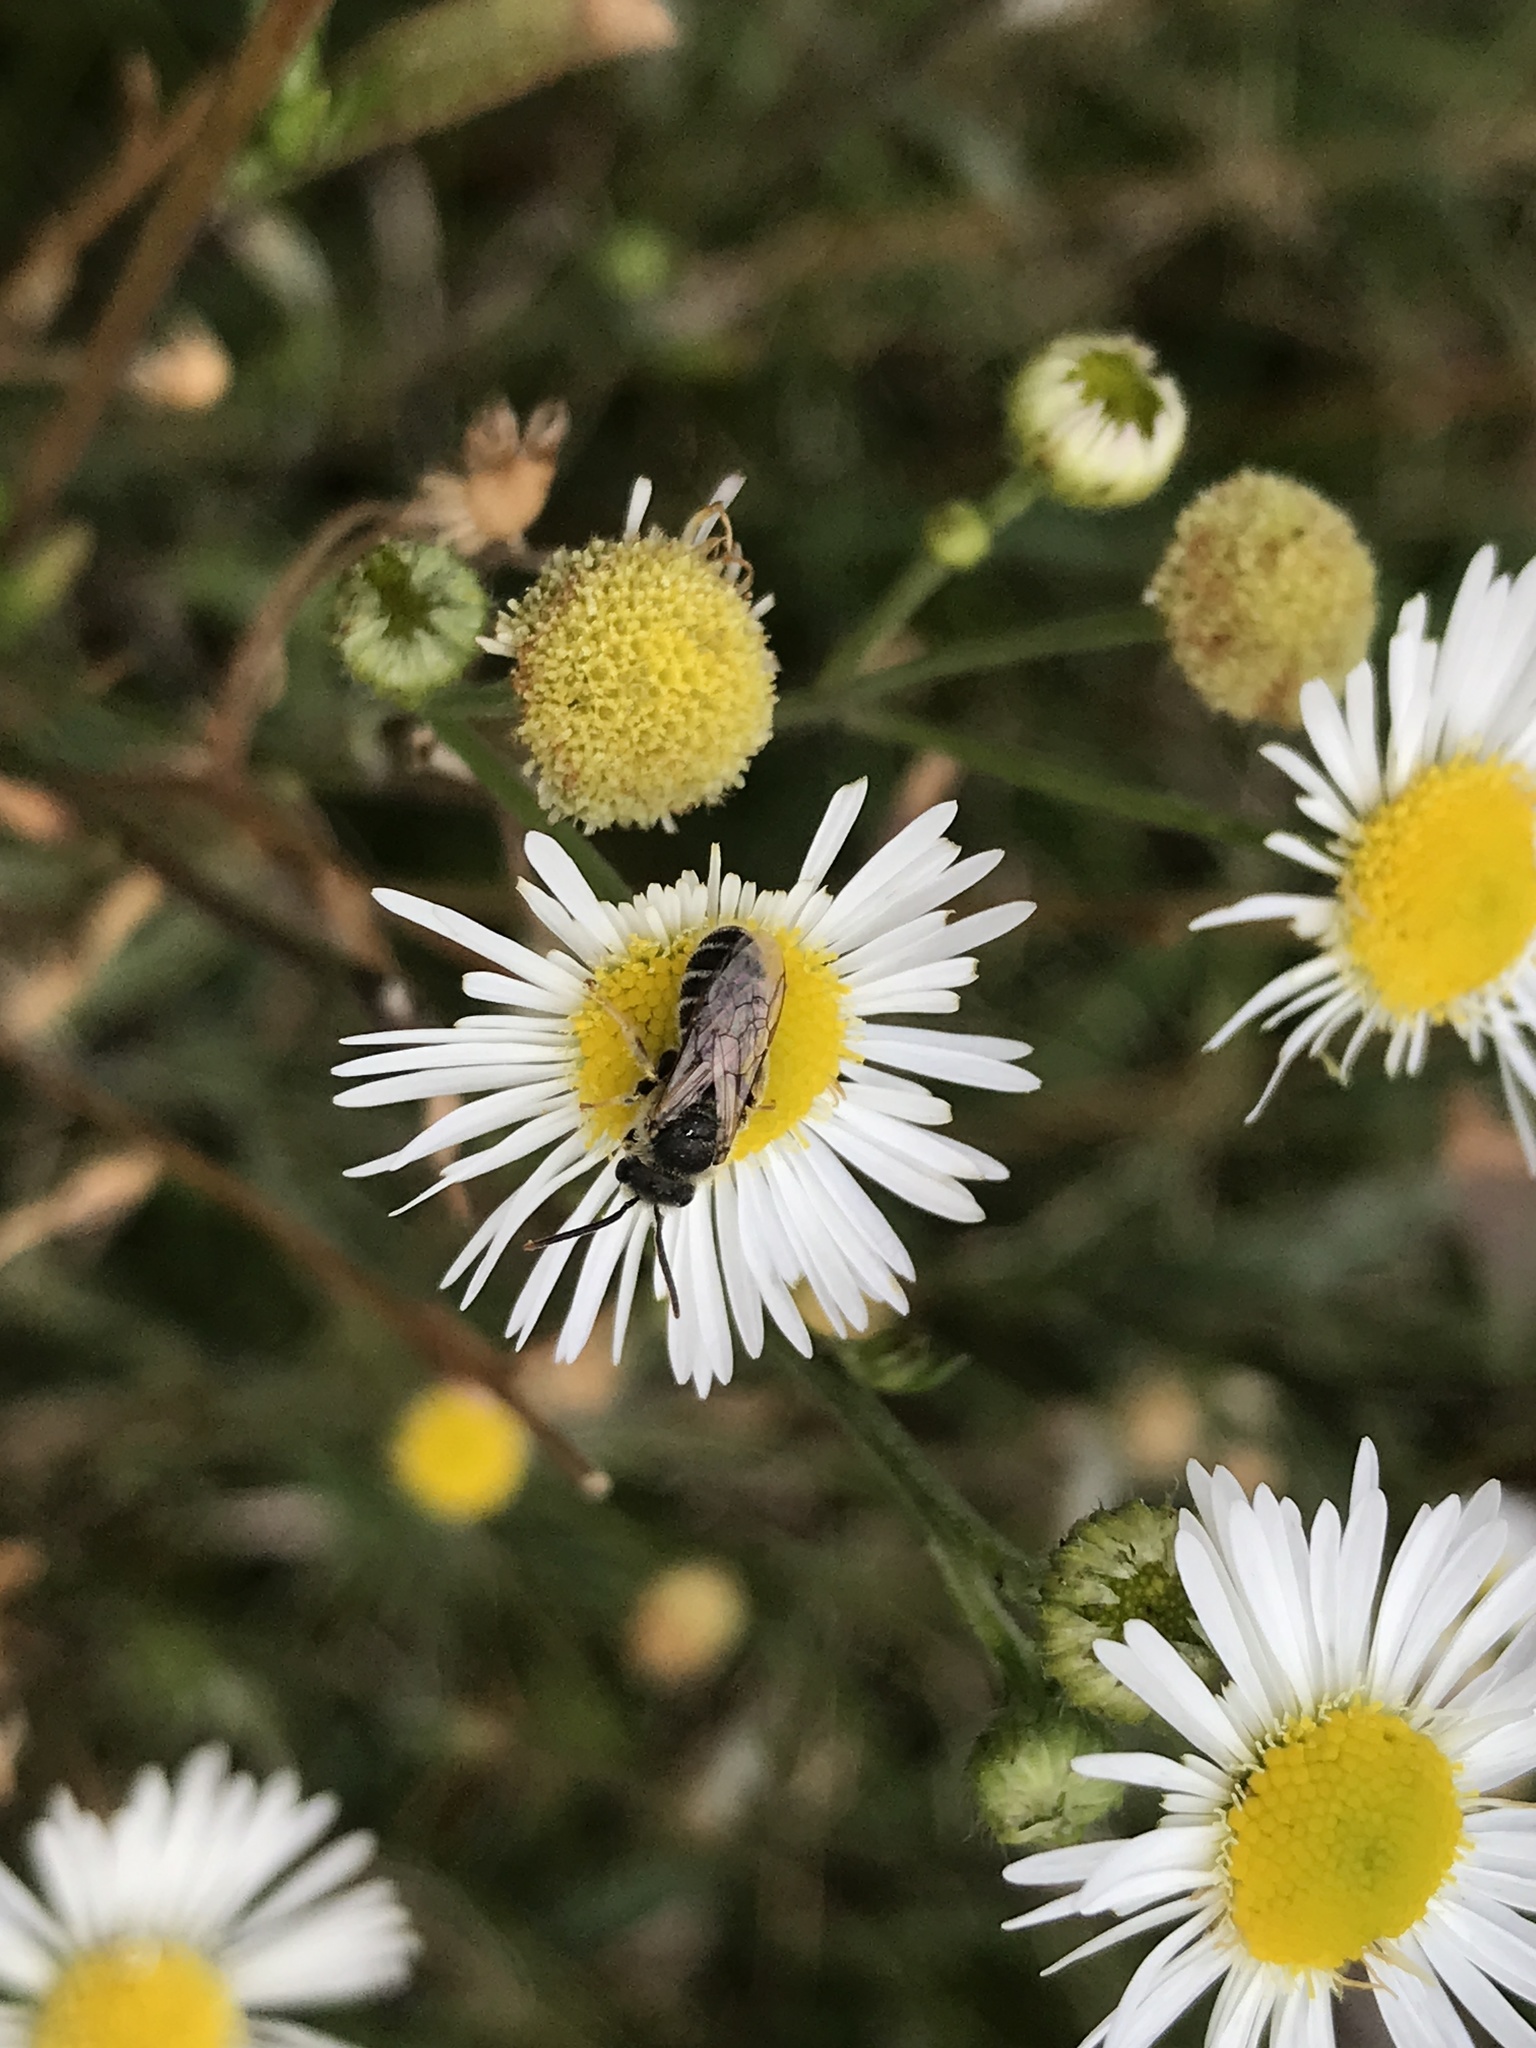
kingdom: Animalia
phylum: Arthropoda
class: Insecta
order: Hymenoptera
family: Halictidae
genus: Halictus
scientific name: Halictus ligatus
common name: Ligated furrow bee
